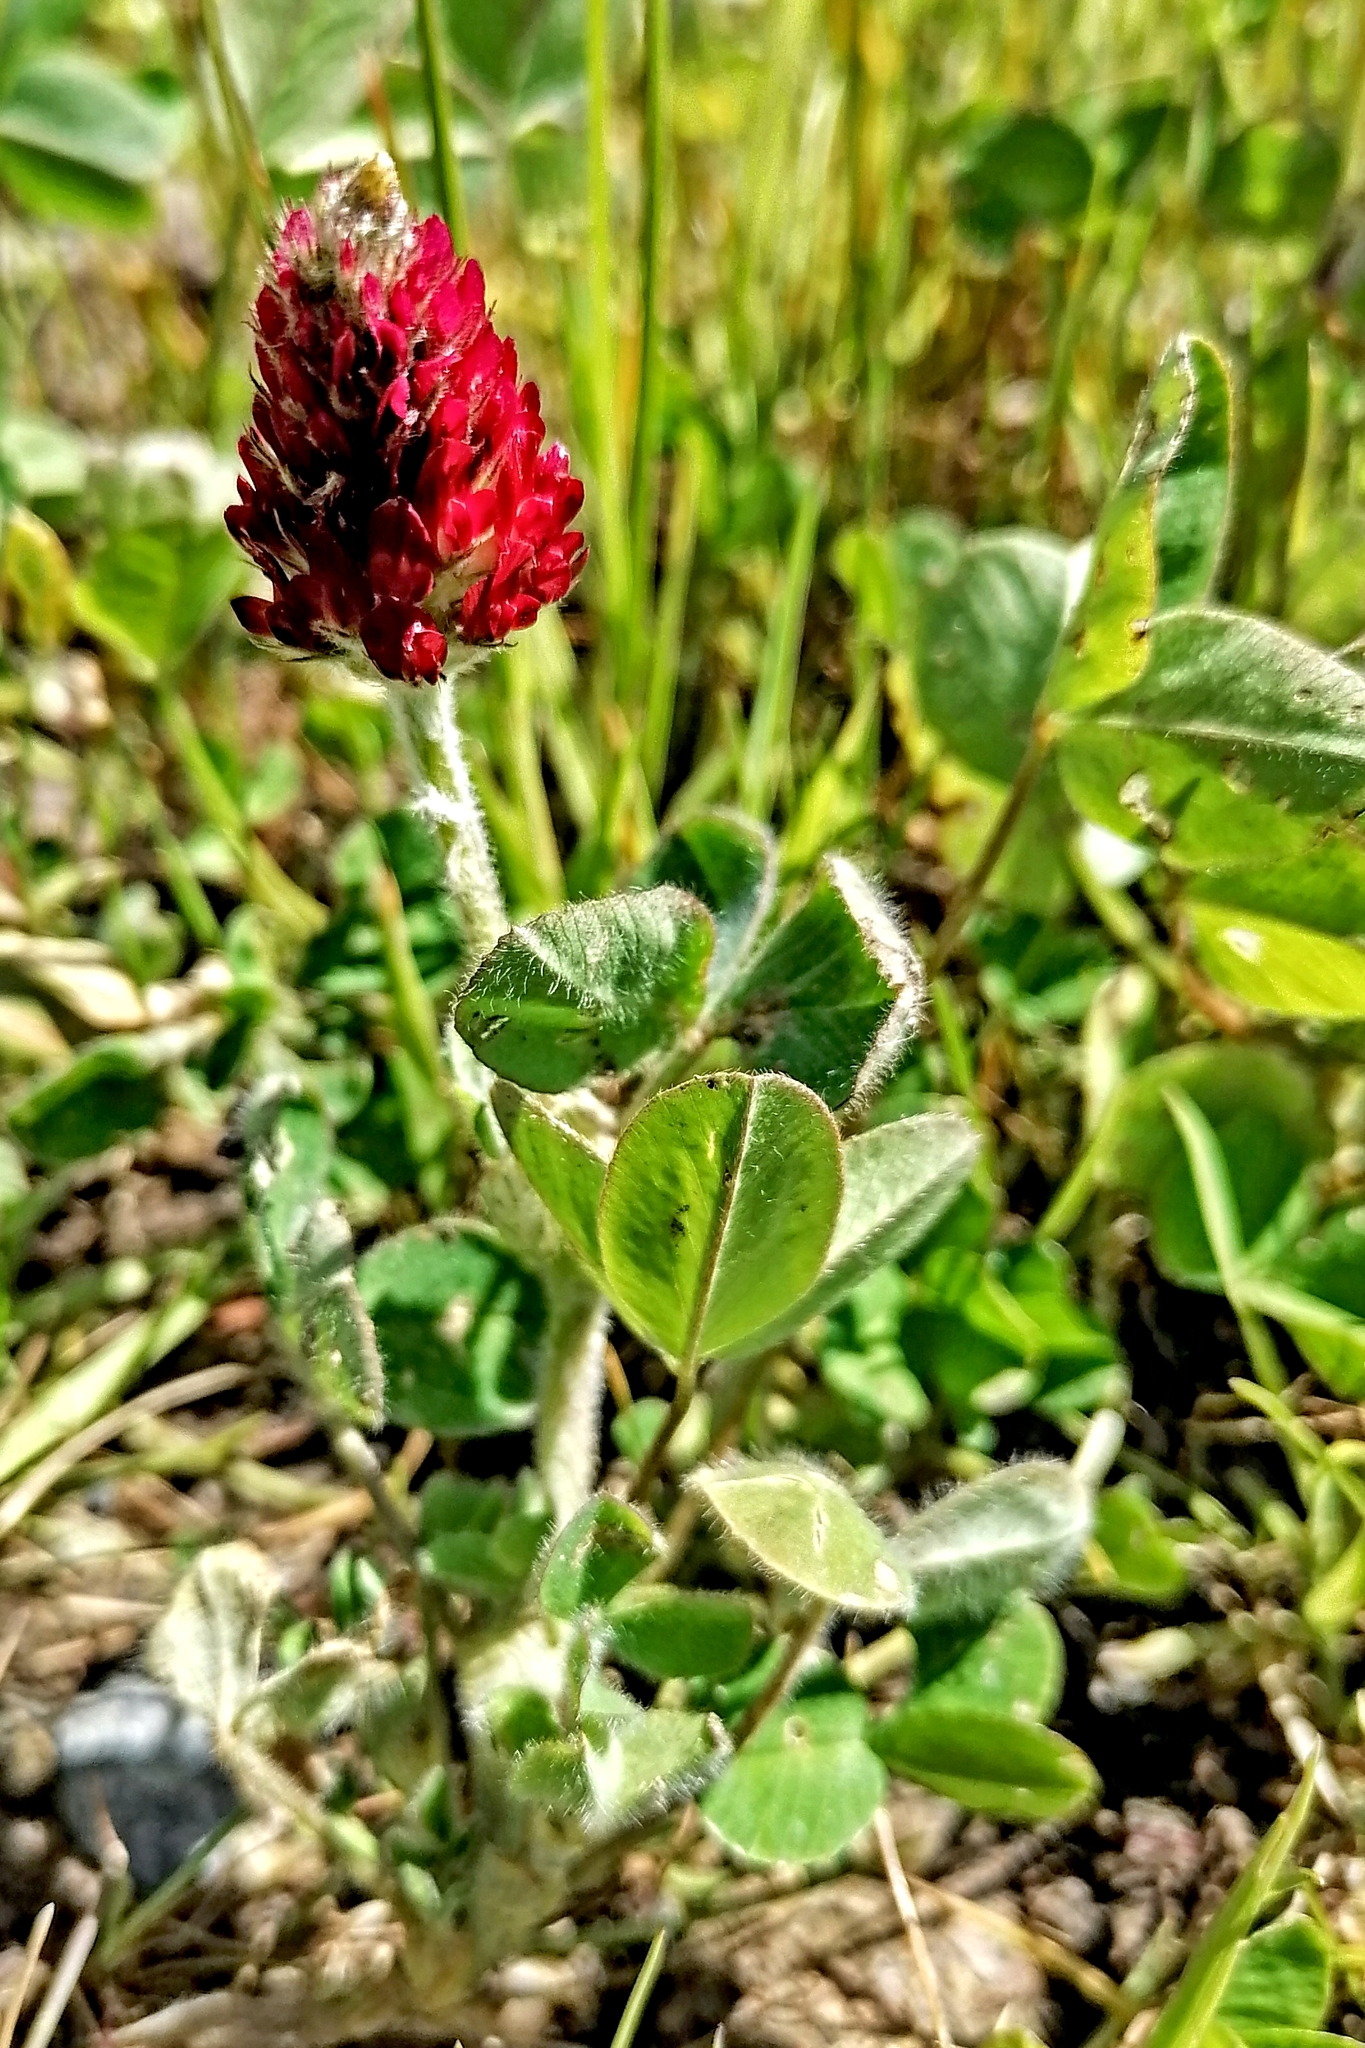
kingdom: Plantae
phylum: Tracheophyta
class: Magnoliopsida
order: Fabales
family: Fabaceae
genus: Trifolium
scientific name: Trifolium incarnatum
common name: Crimson clover
